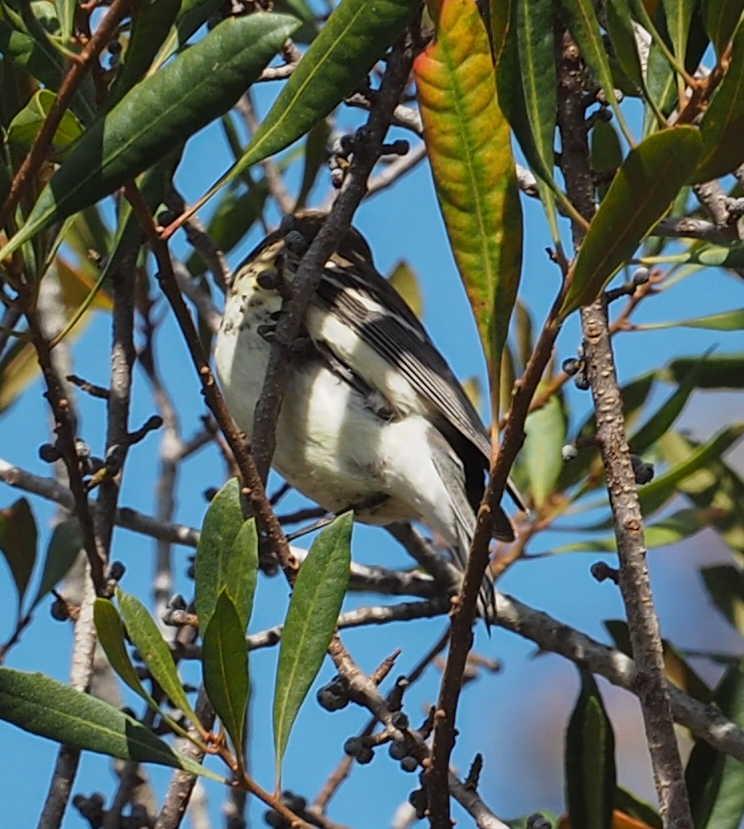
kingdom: Animalia
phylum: Chordata
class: Aves
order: Passeriformes
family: Parulidae
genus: Setophaga
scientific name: Setophaga coronata
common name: Myrtle warbler
